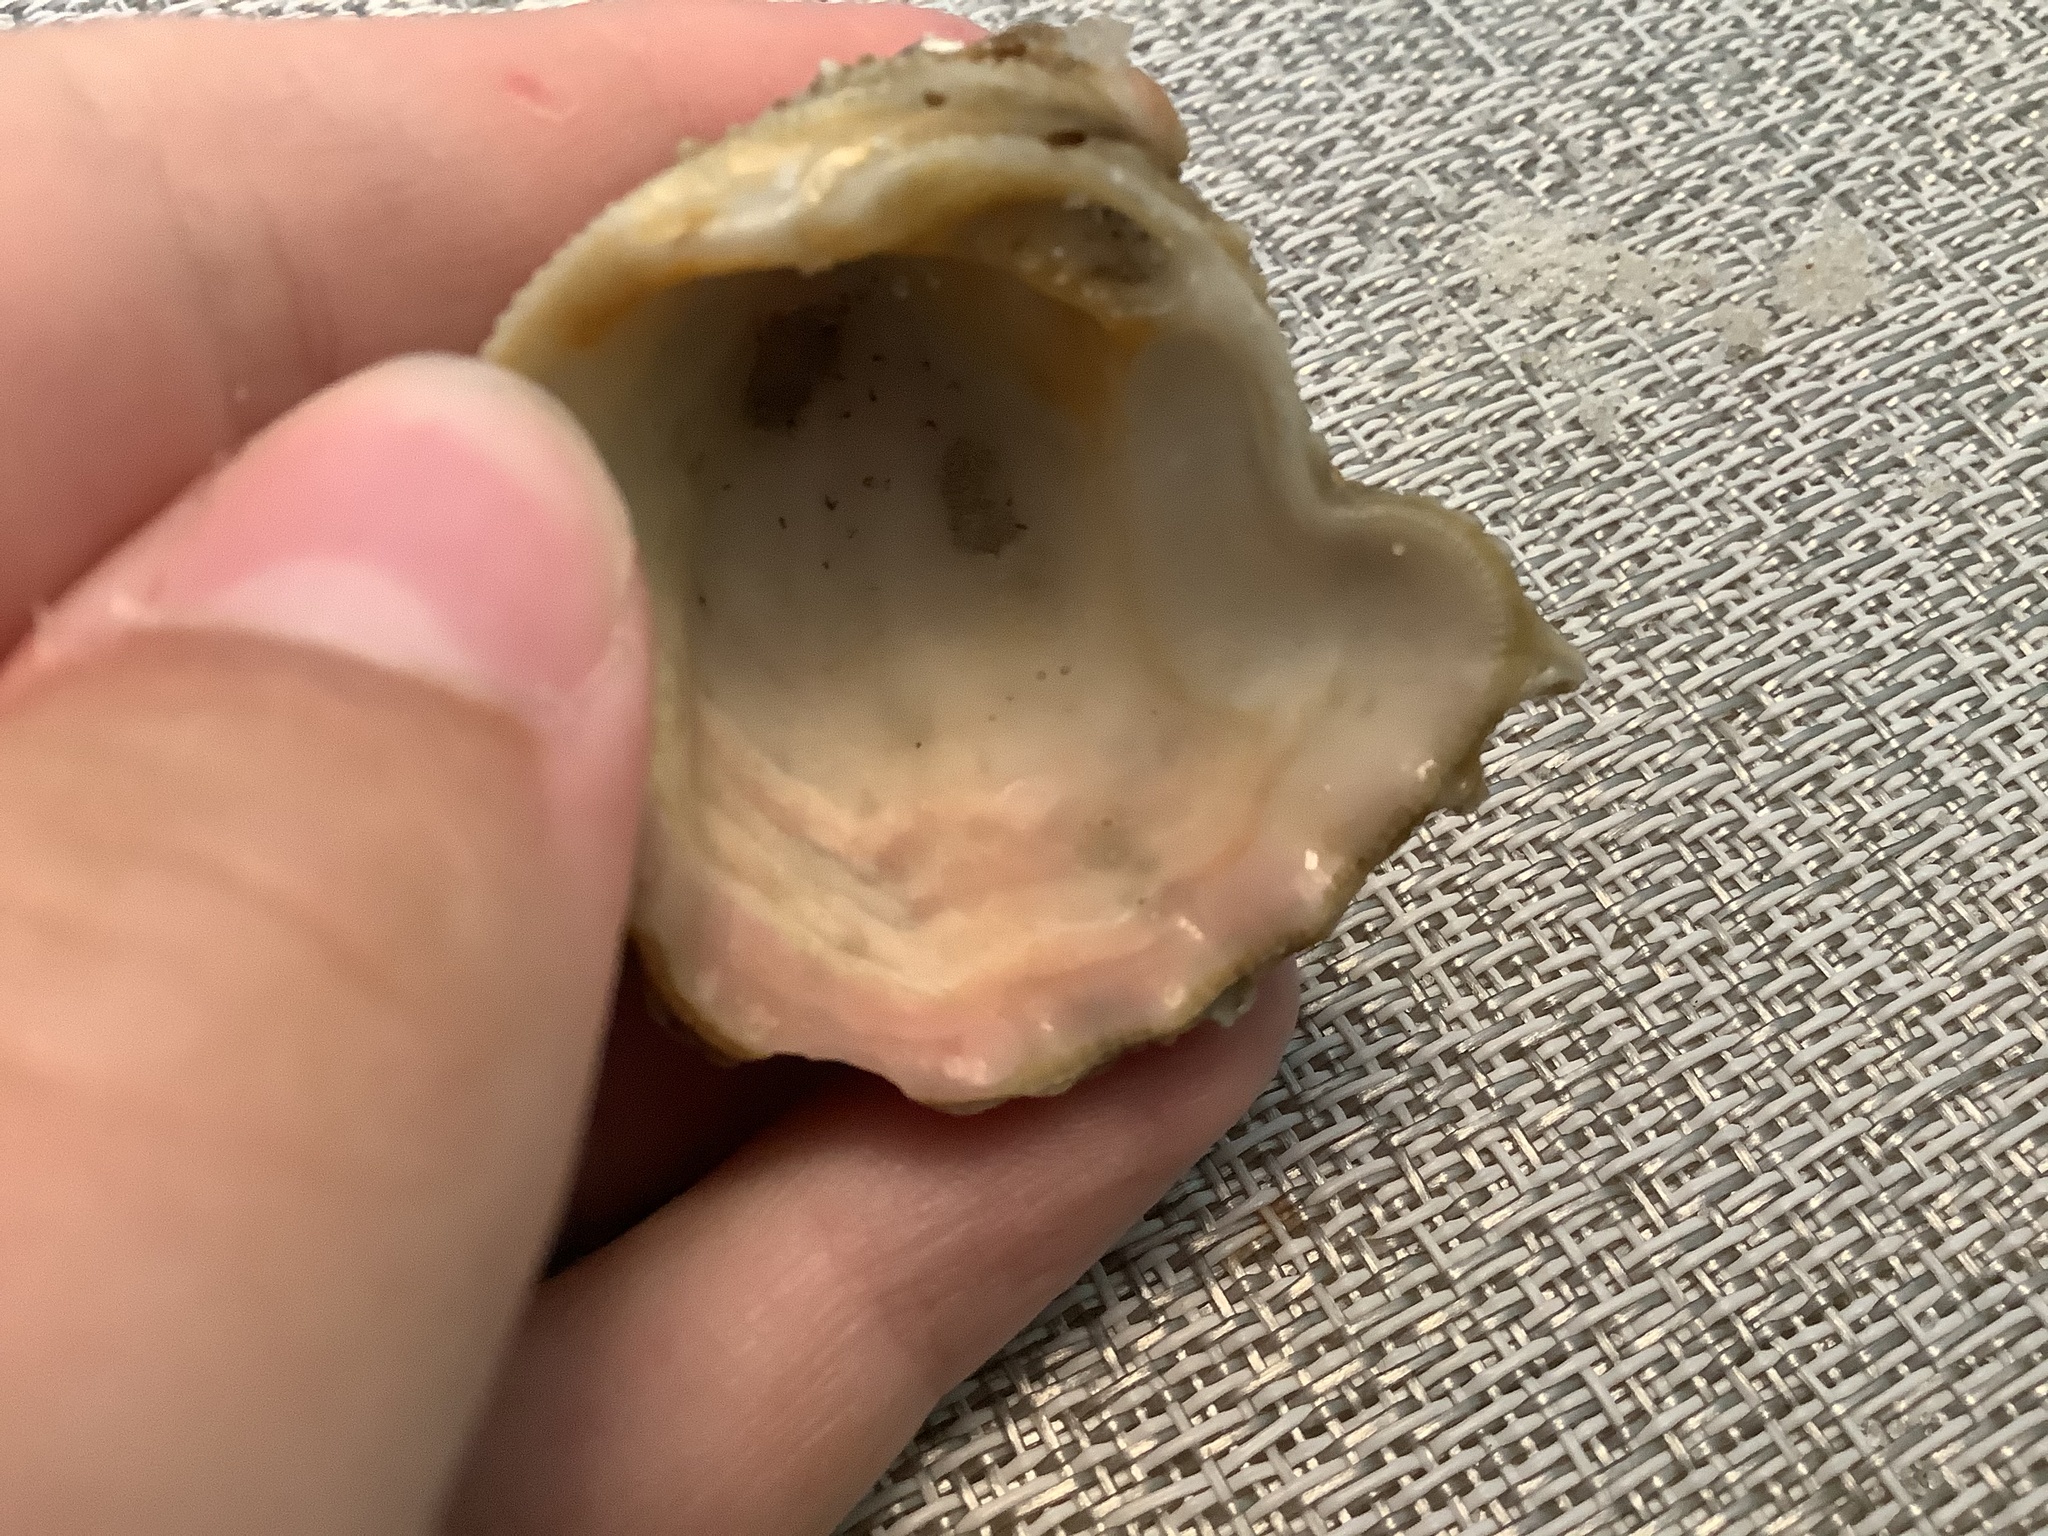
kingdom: Animalia
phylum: Mollusca
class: Bivalvia
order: Venerida
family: Chamidae
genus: Arcinella
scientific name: Arcinella cornuta
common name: Florida spiny jewel box
